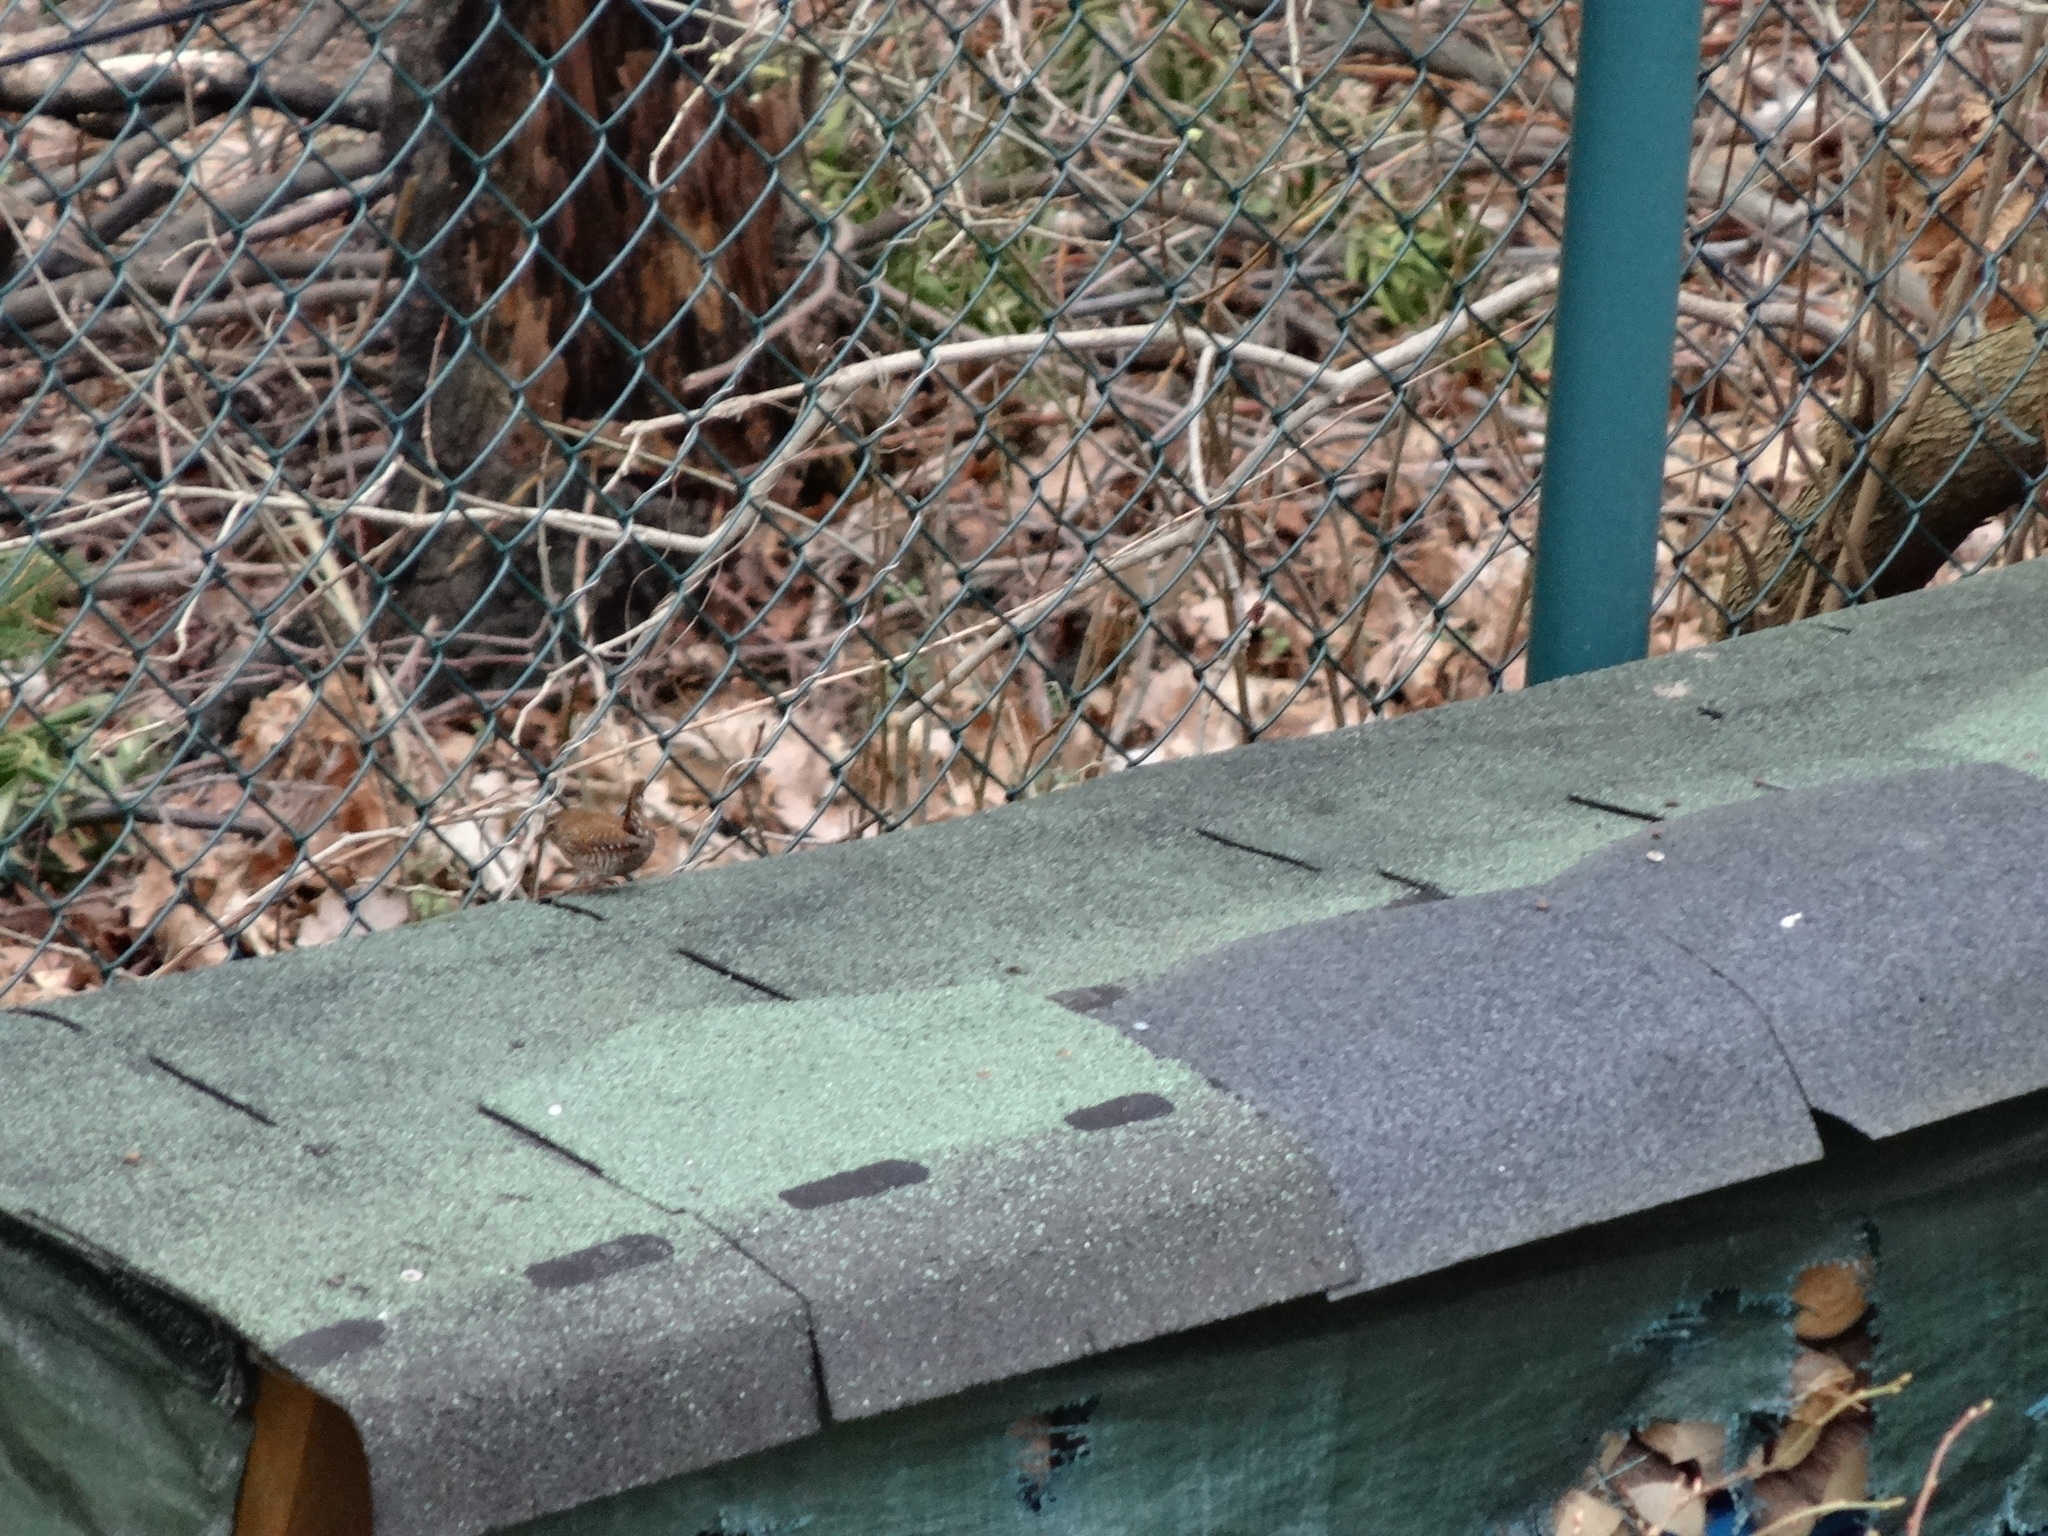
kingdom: Animalia
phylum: Chordata
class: Aves
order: Passeriformes
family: Troglodytidae
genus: Troglodytes
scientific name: Troglodytes troglodytes
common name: Eurasian wren
